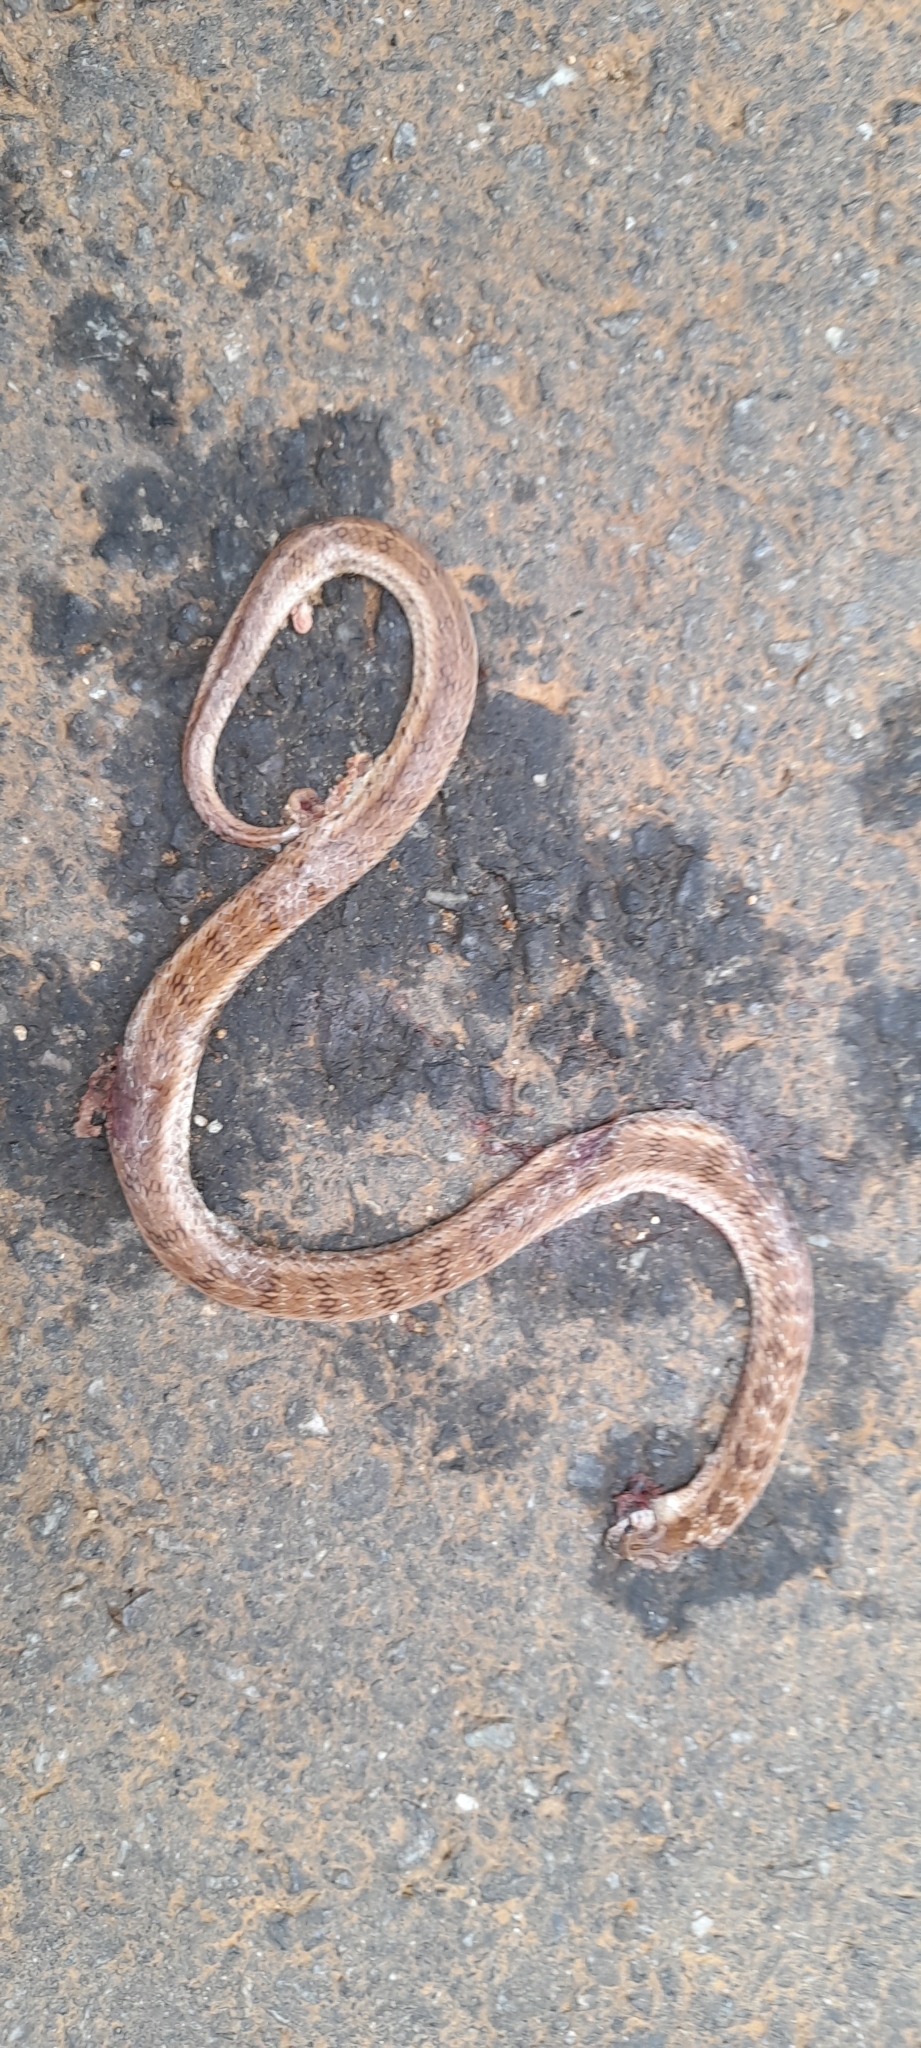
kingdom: Animalia
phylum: Chordata
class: Squamata
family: Colubridae
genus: Oligodon
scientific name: Oligodon taeniolatus
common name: Loos snake
